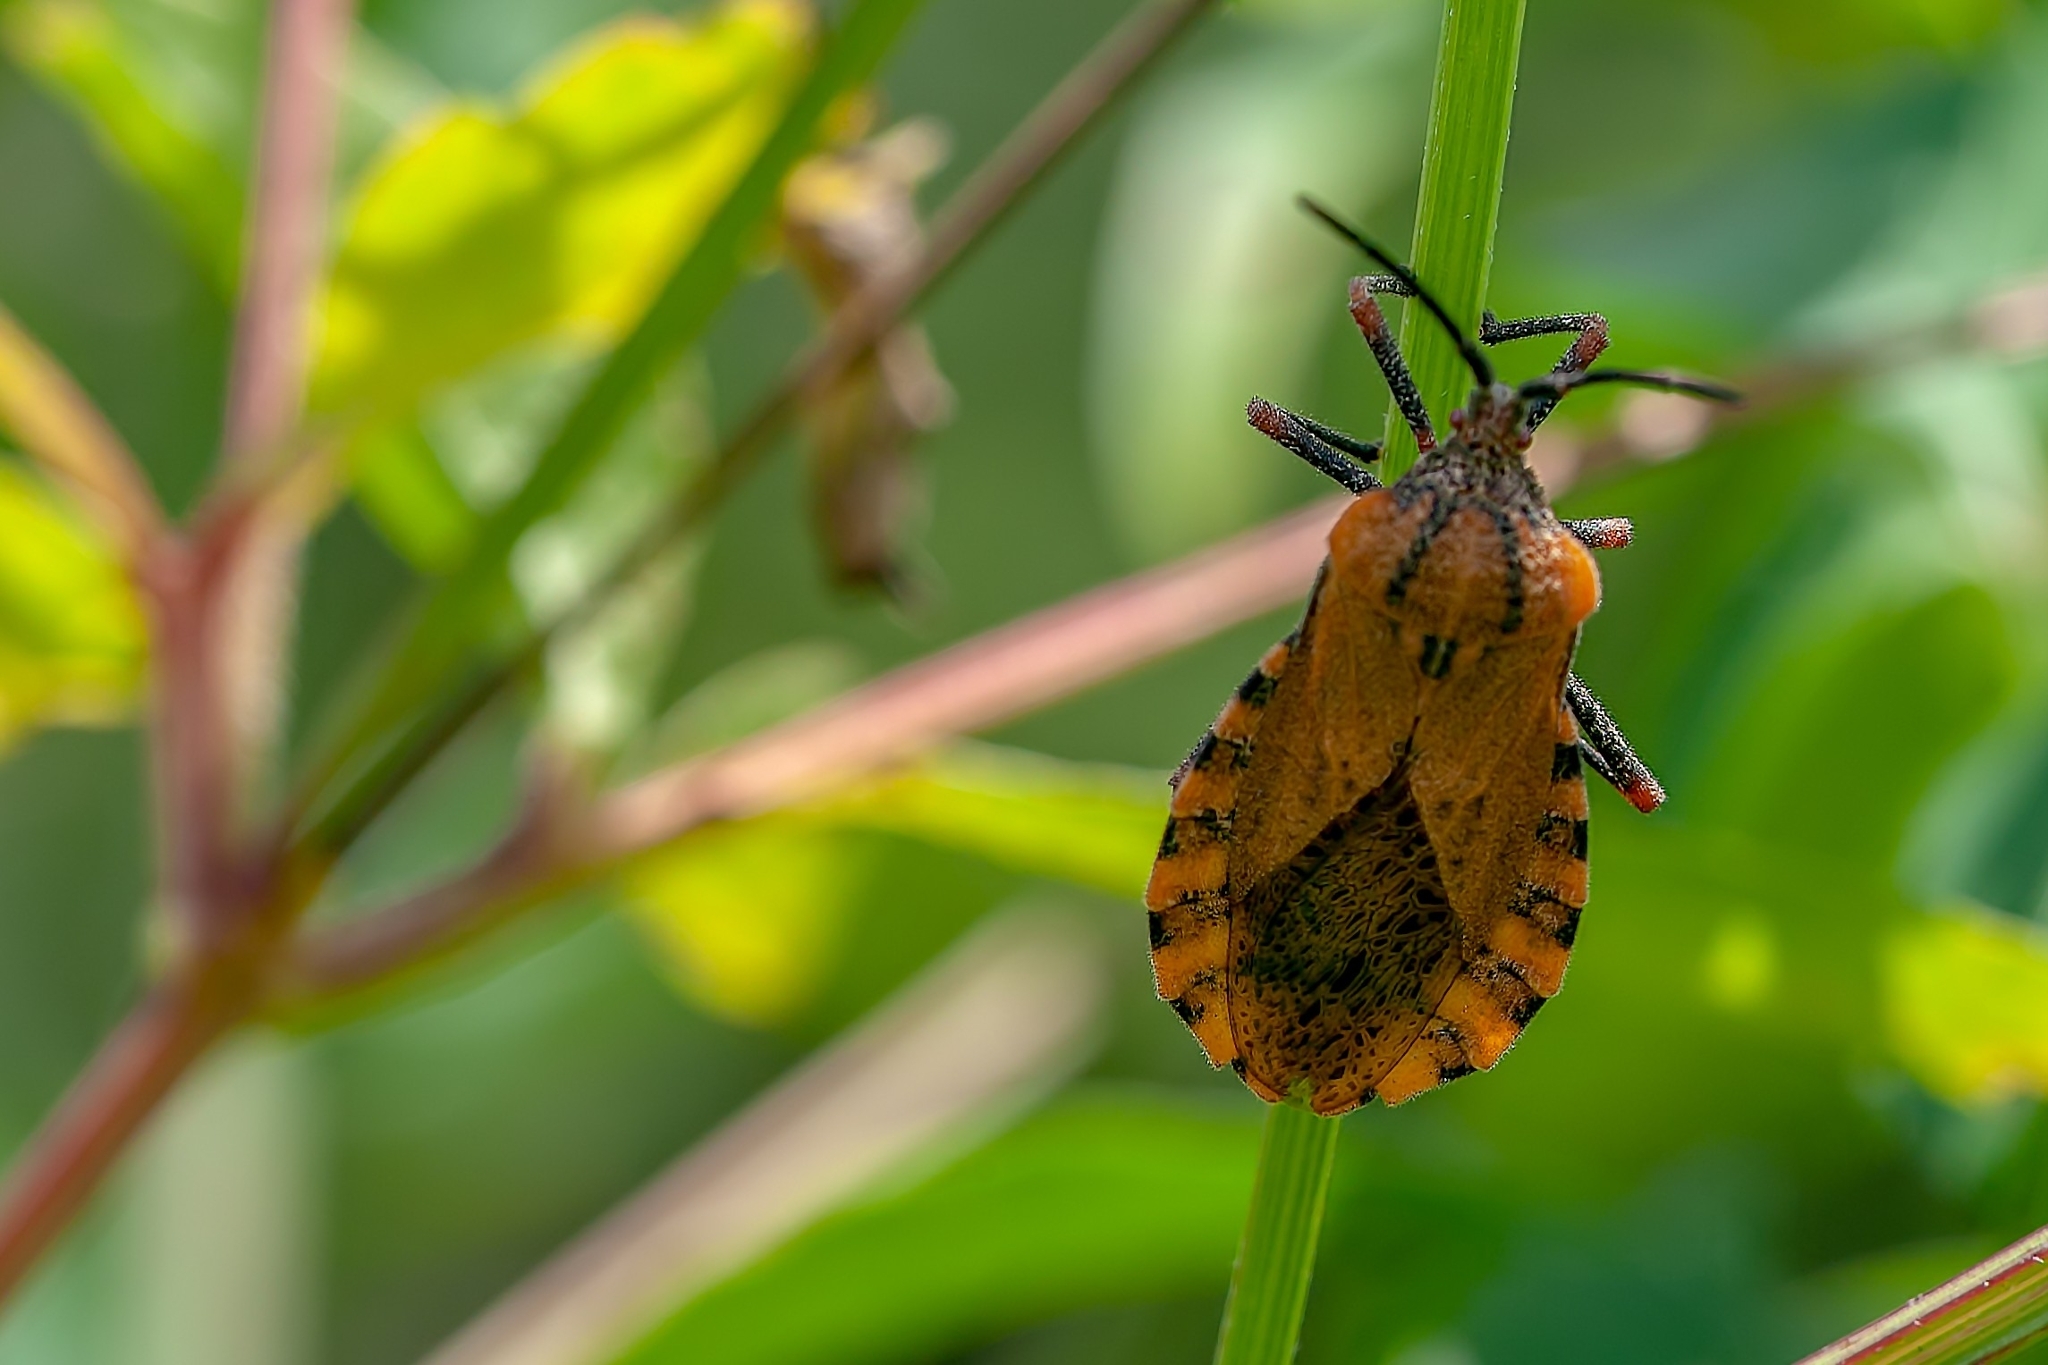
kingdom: Animalia
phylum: Arthropoda
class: Insecta
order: Hemiptera
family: Coreidae
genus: Spartocera
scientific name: Spartocera fusca
